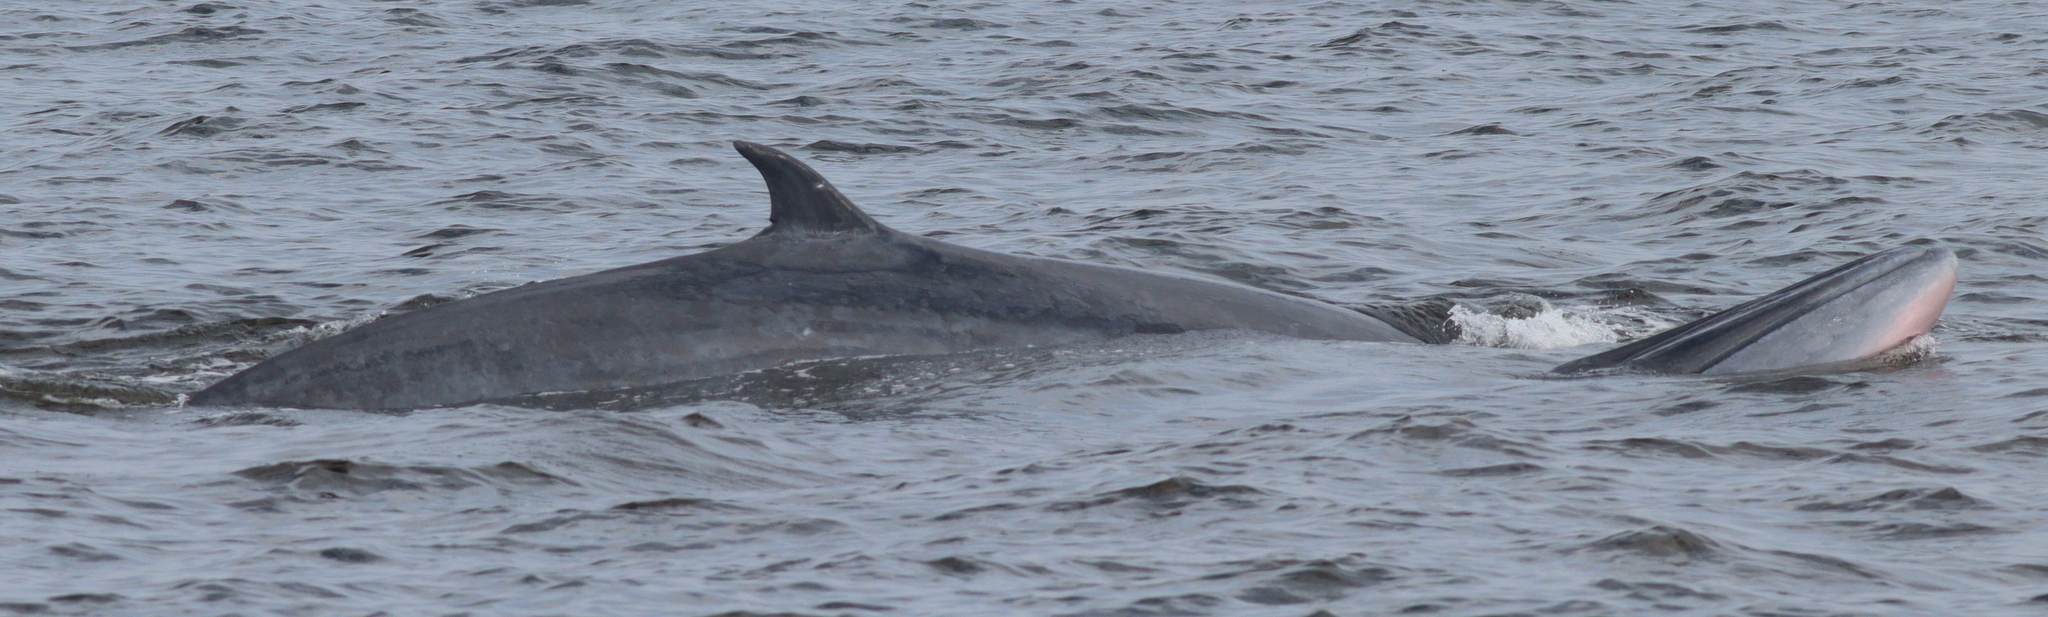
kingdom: Animalia
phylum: Chordata
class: Mammalia
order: Cetacea
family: Balaenopteridae
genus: Balaenoptera
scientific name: Balaenoptera edeni
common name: Bryde's whale
